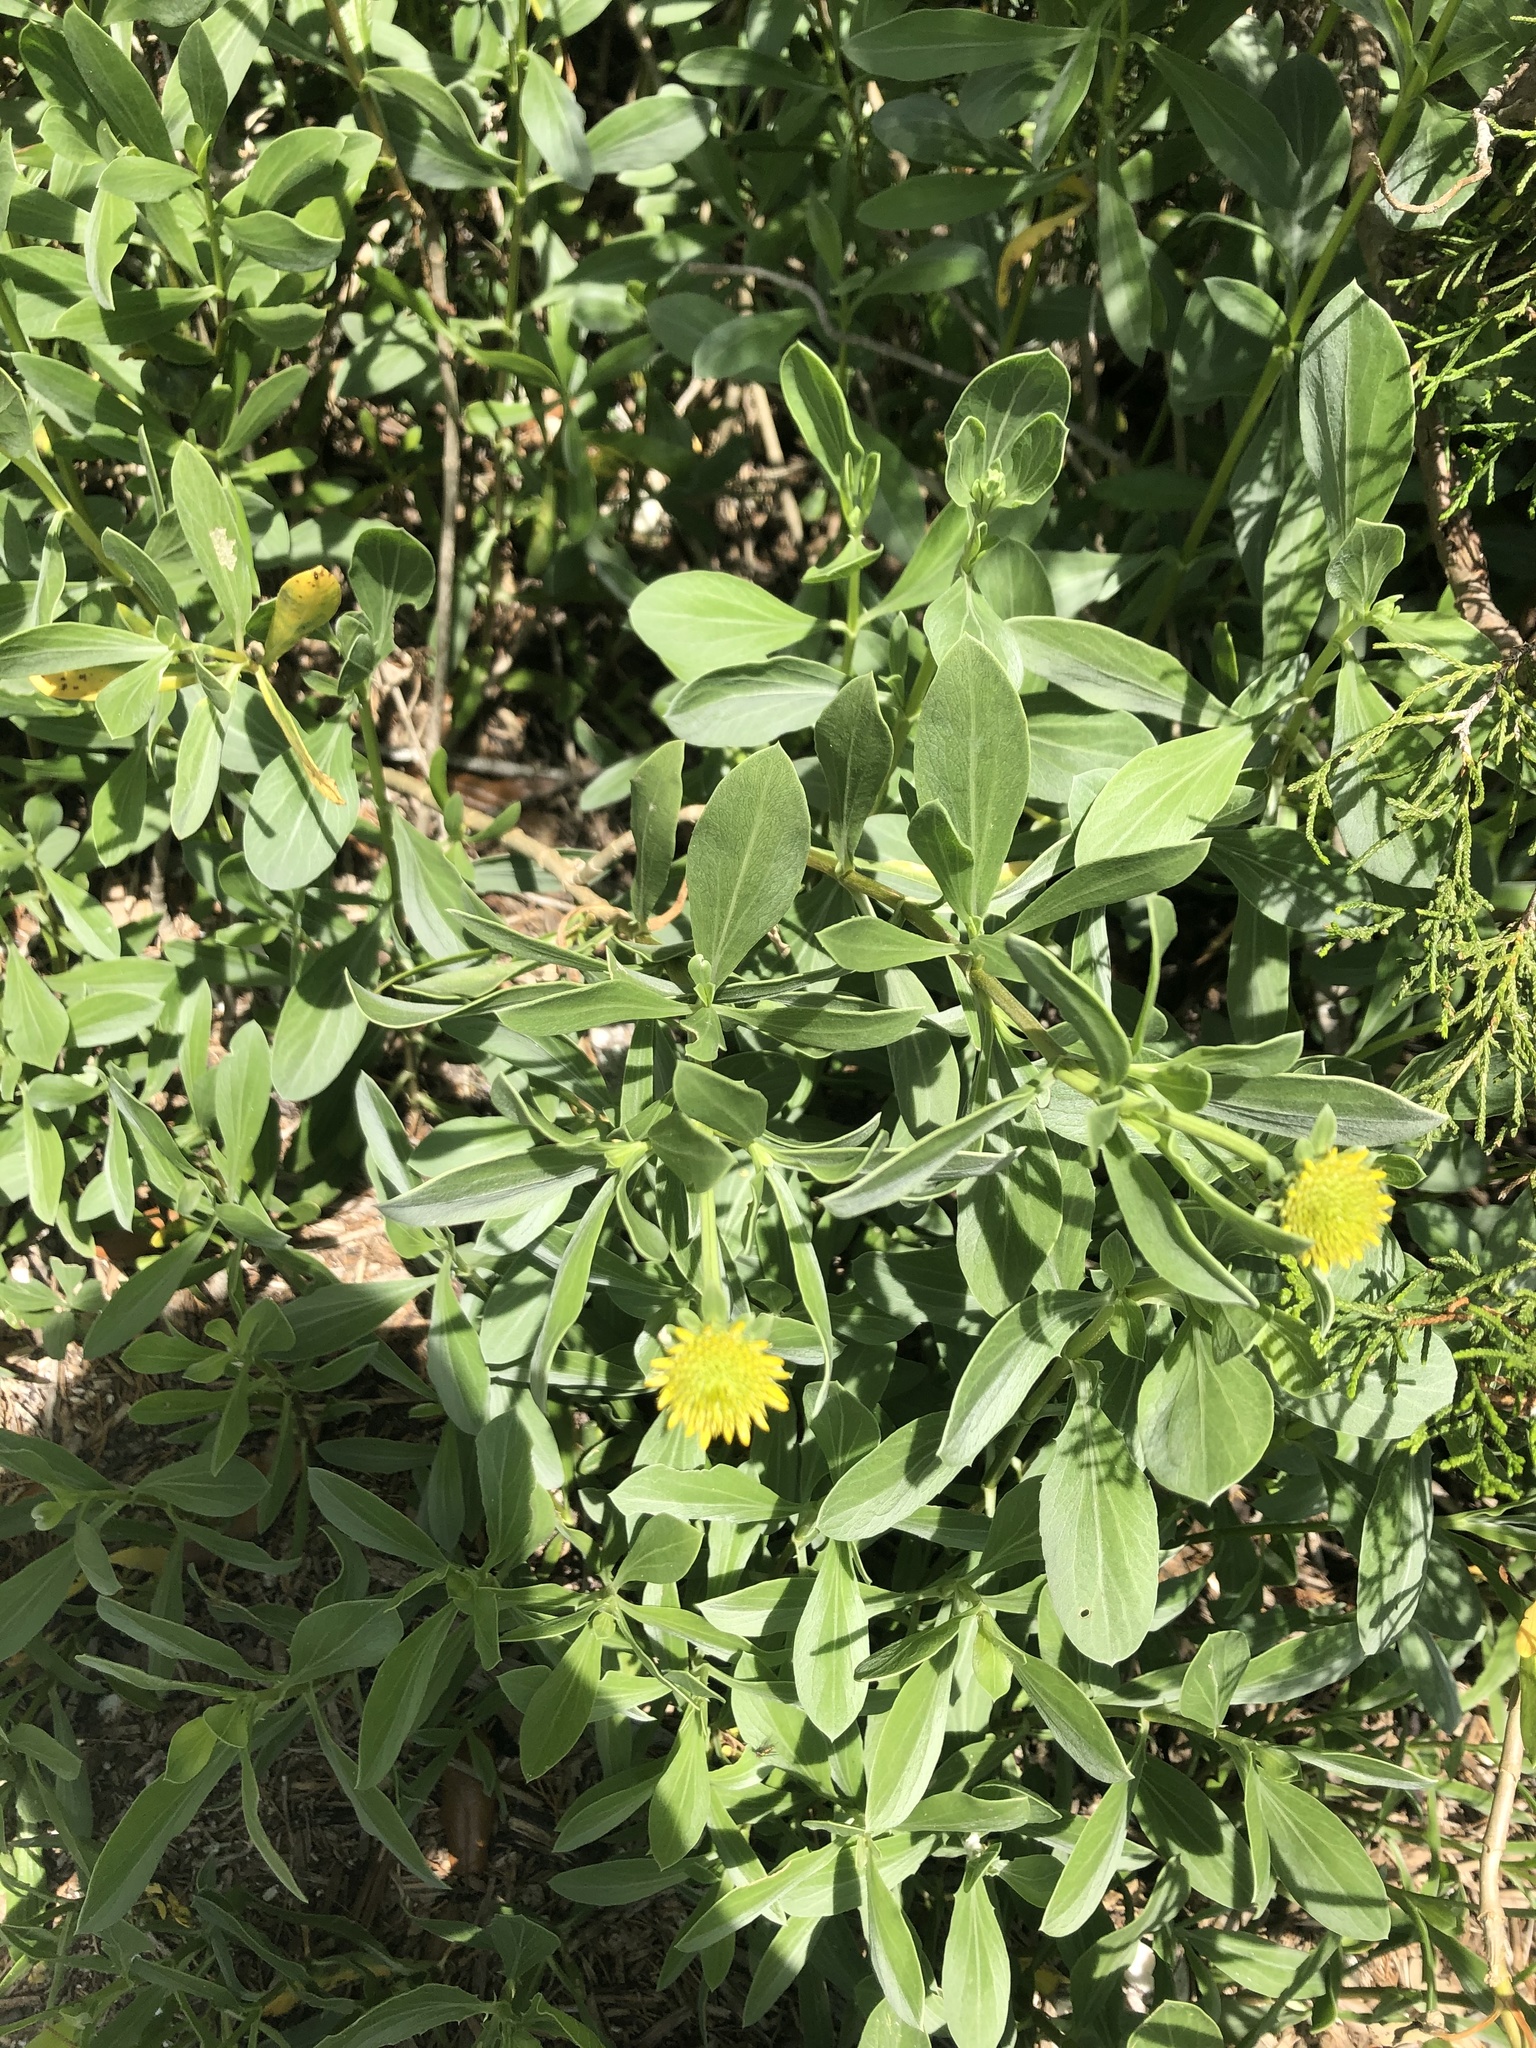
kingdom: Plantae
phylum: Tracheophyta
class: Magnoliopsida
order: Asterales
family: Asteraceae
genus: Borrichia
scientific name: Borrichia frutescens
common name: Sea oxeye
